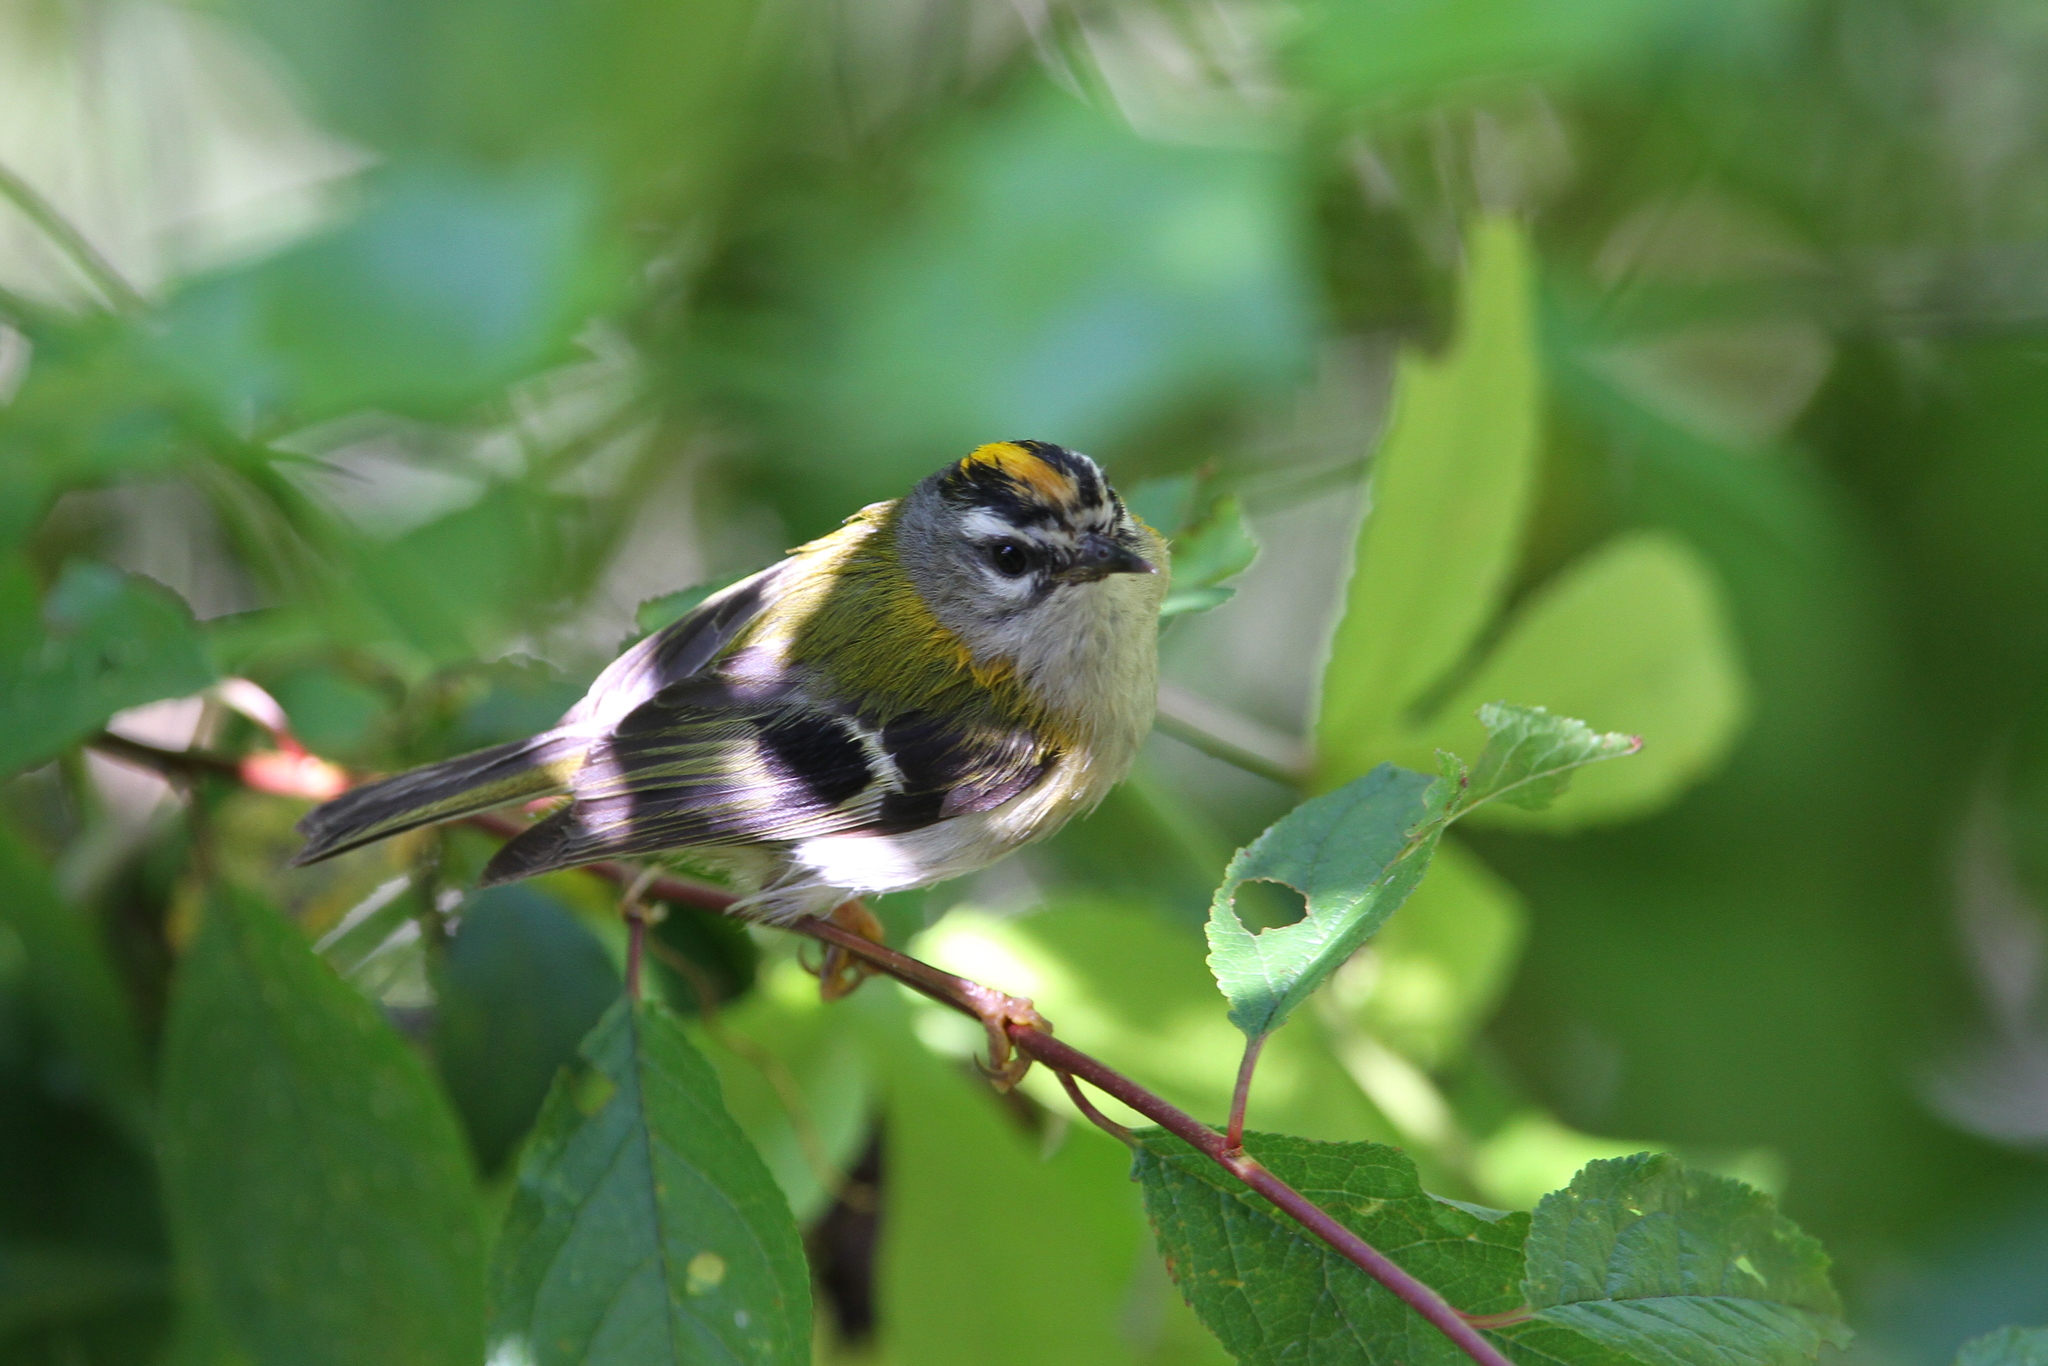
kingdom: Animalia
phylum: Chordata
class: Aves
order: Passeriformes
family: Regulidae
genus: Regulus
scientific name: Regulus madeirensis
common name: Madeira firecrest
